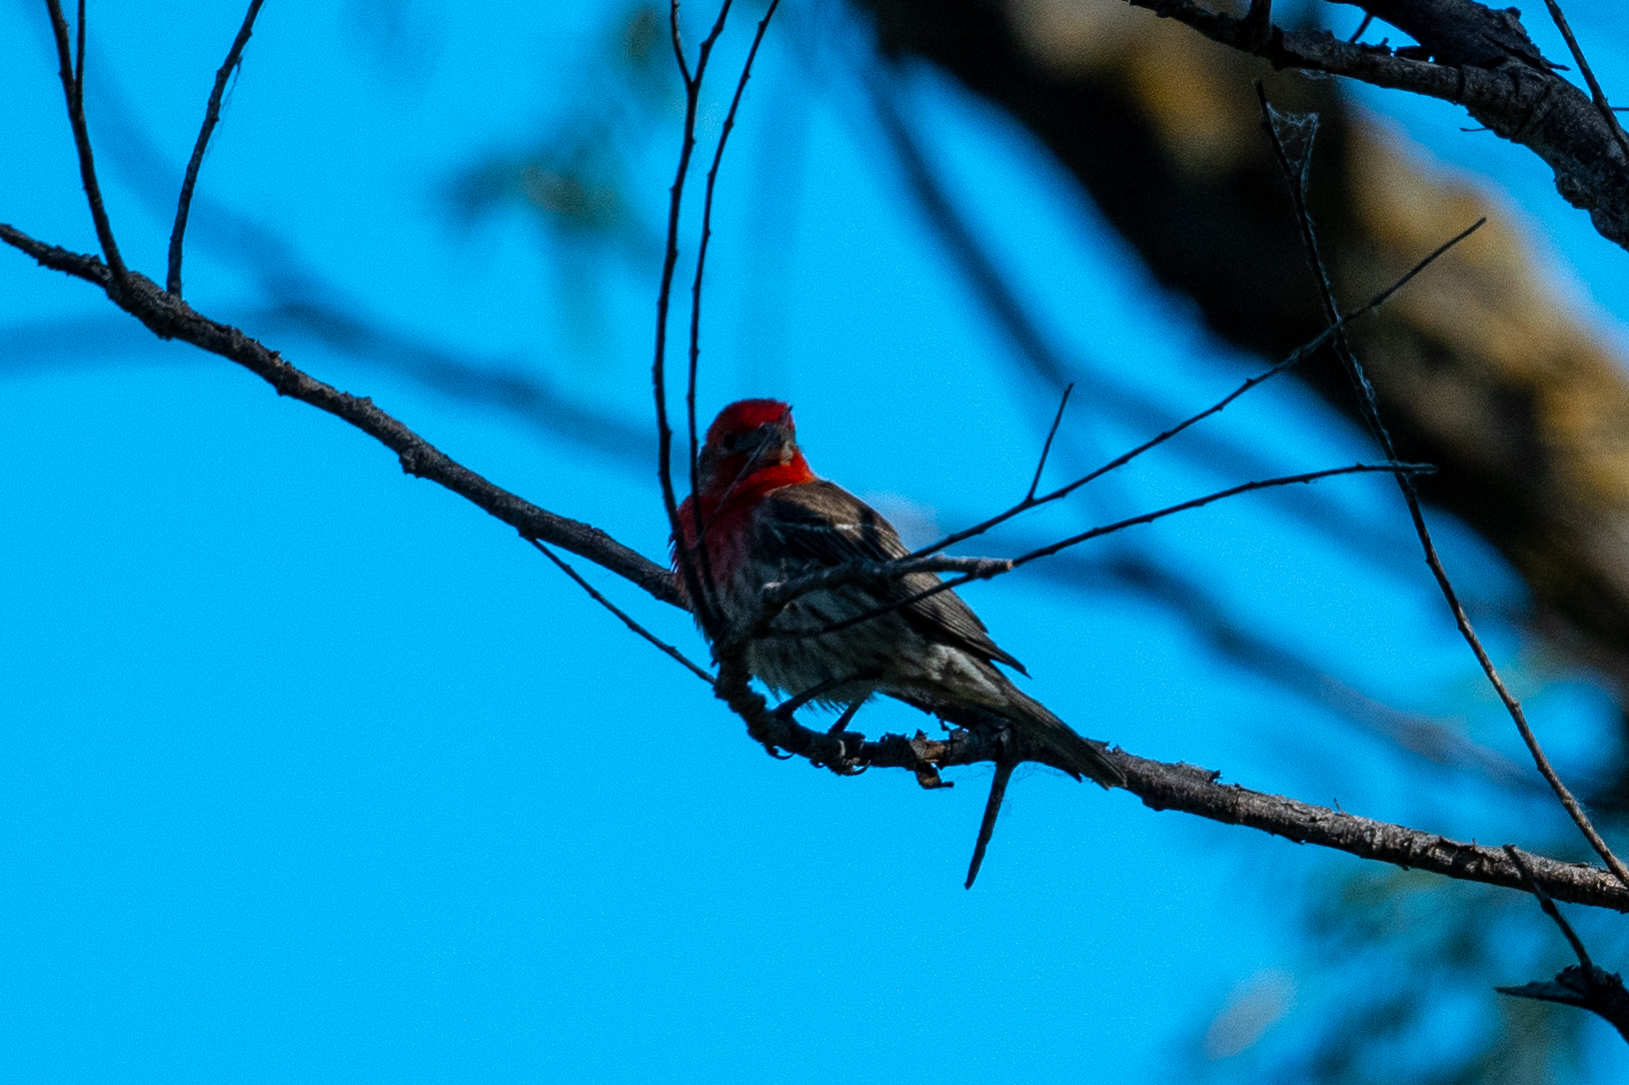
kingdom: Animalia
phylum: Chordata
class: Aves
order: Passeriformes
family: Fringillidae
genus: Haemorhous
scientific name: Haemorhous mexicanus
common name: House finch
